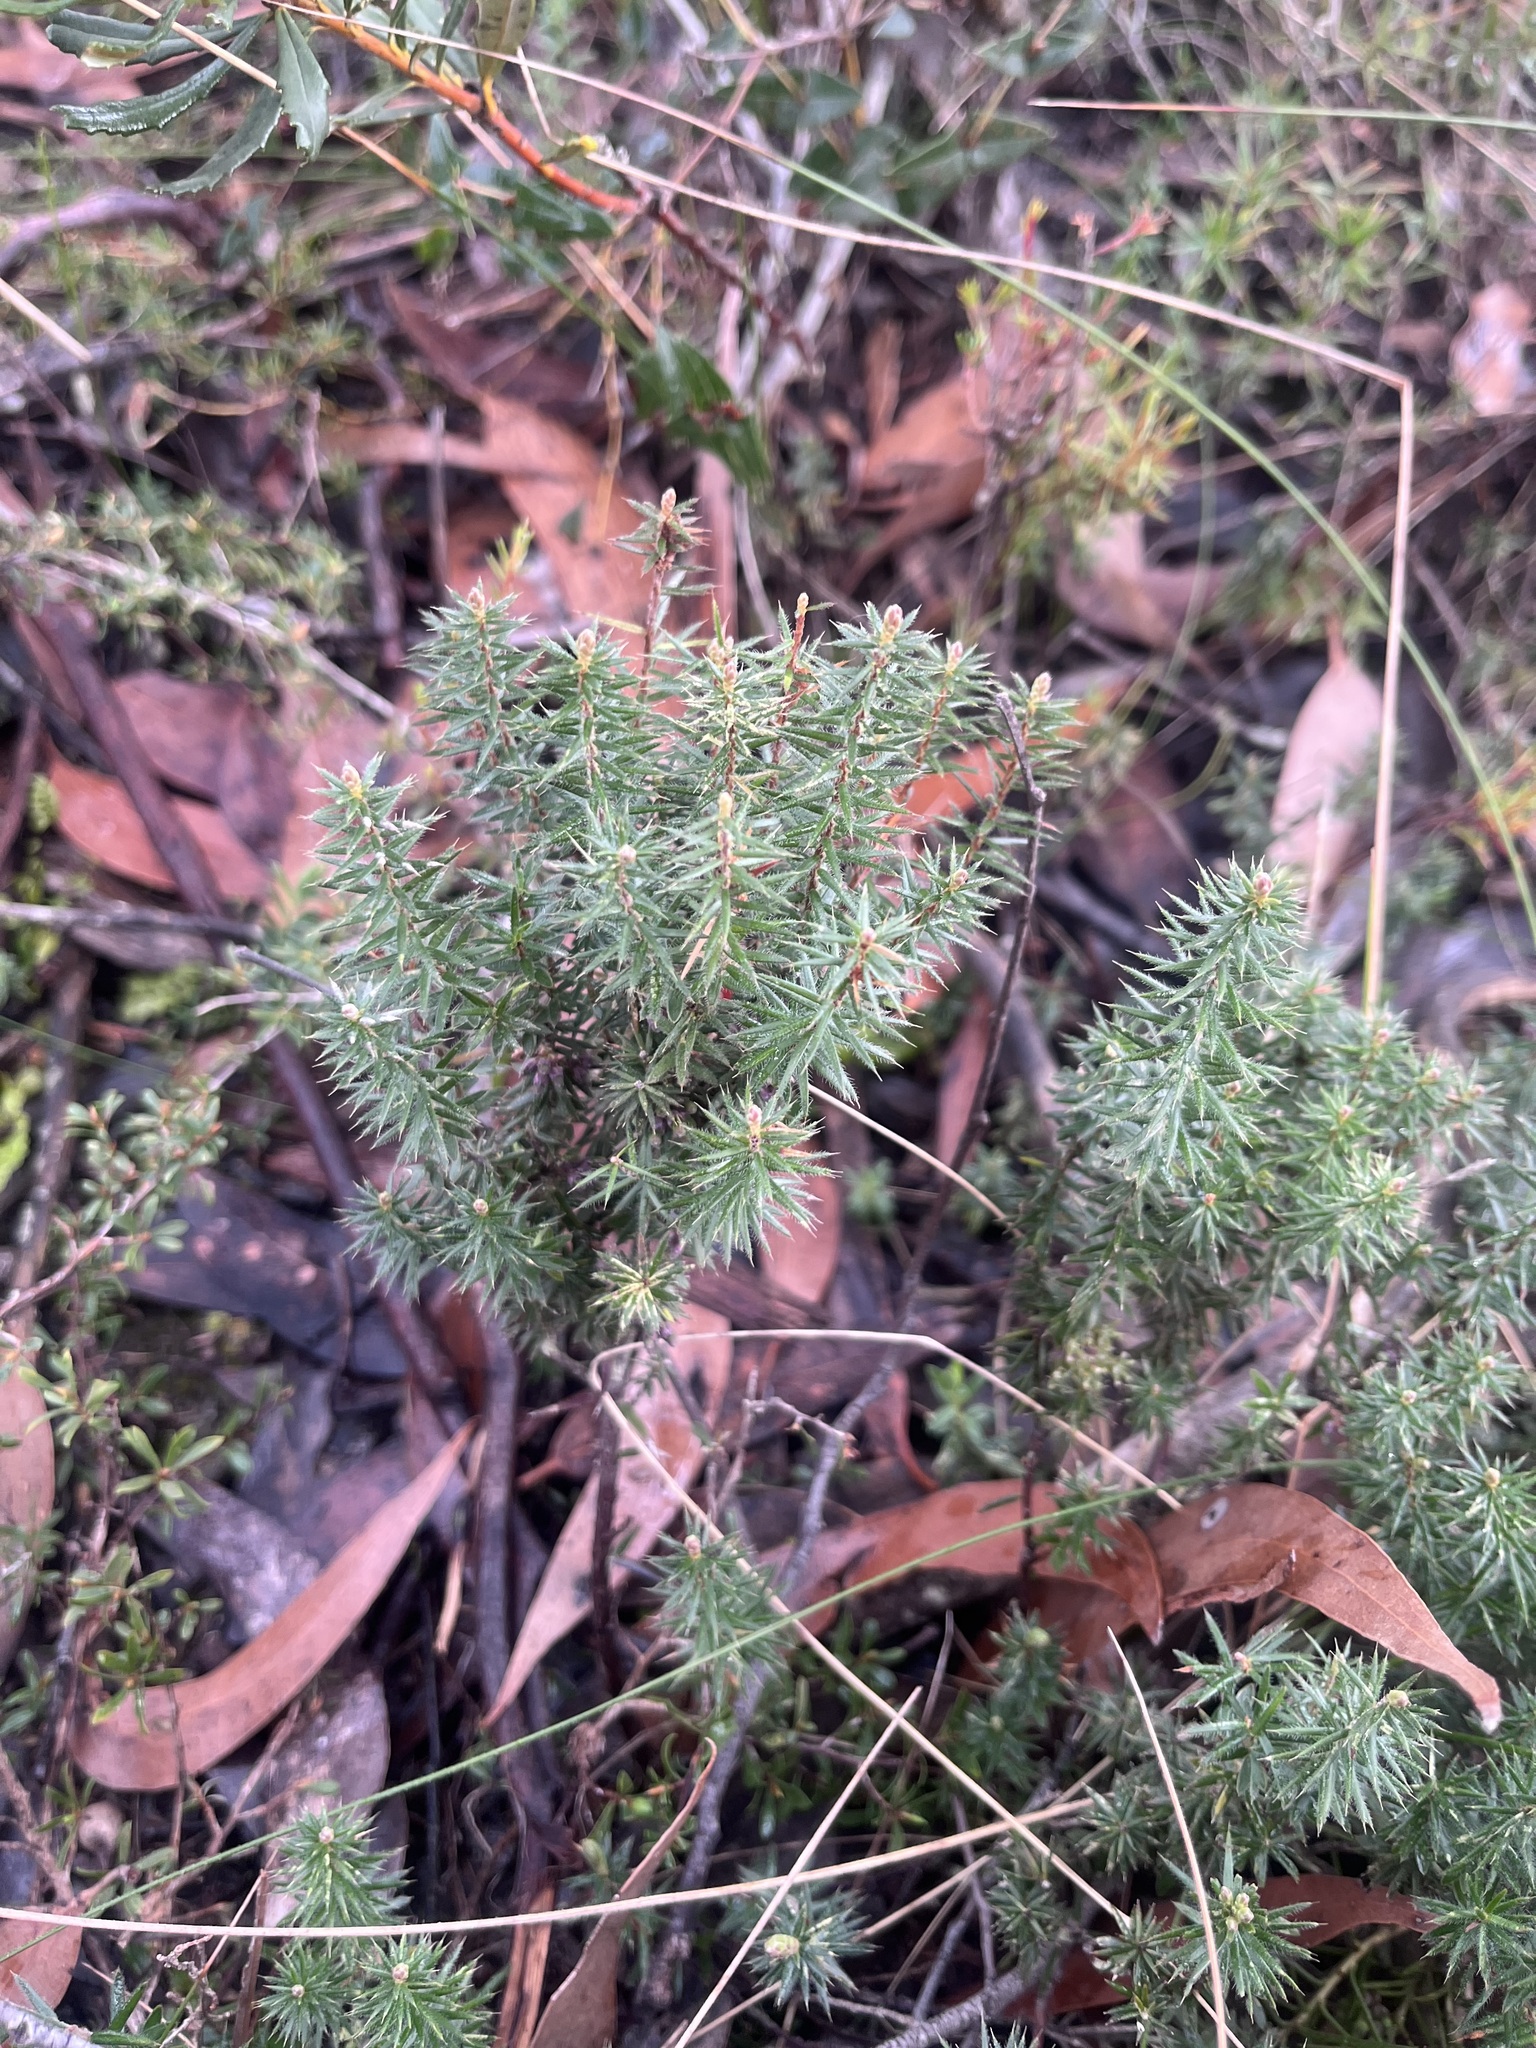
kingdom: Plantae
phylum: Tracheophyta
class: Magnoliopsida
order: Ericales
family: Ericaceae
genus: Acrotriche
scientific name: Acrotriche serrulata
